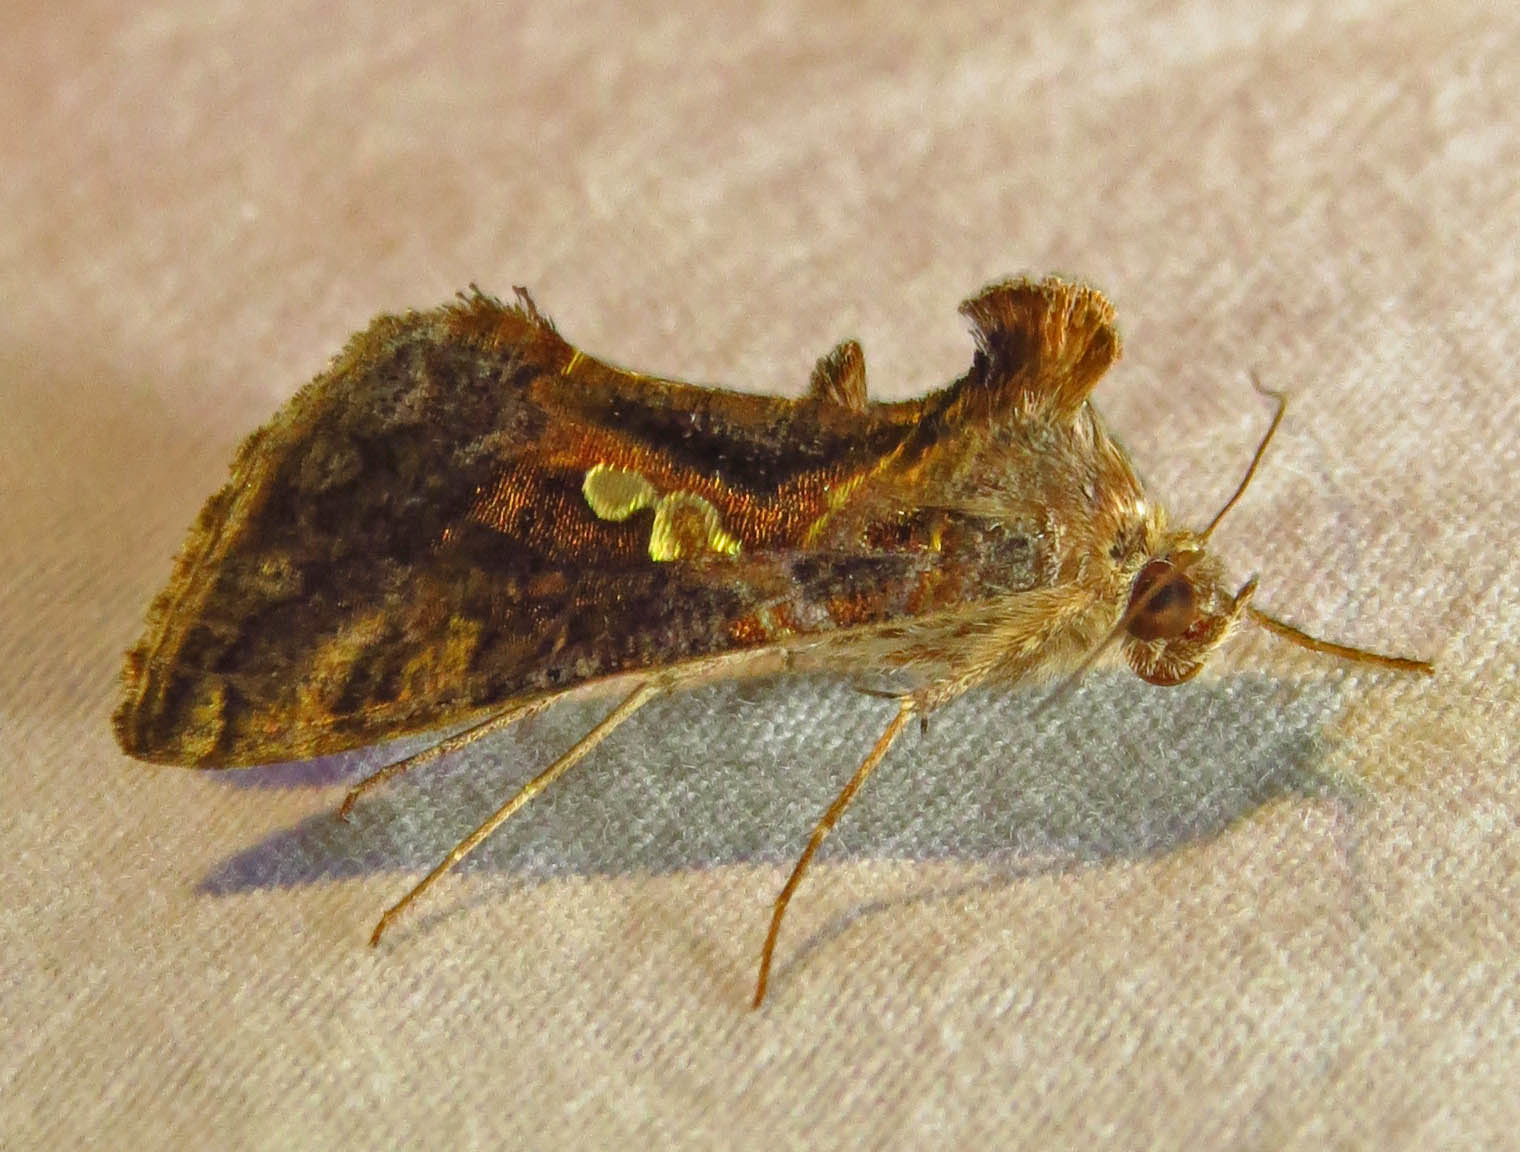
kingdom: Animalia
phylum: Arthropoda
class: Insecta
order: Lepidoptera
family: Noctuidae
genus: Chrysodeixis
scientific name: Chrysodeixis includens
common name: Cutworm moth
